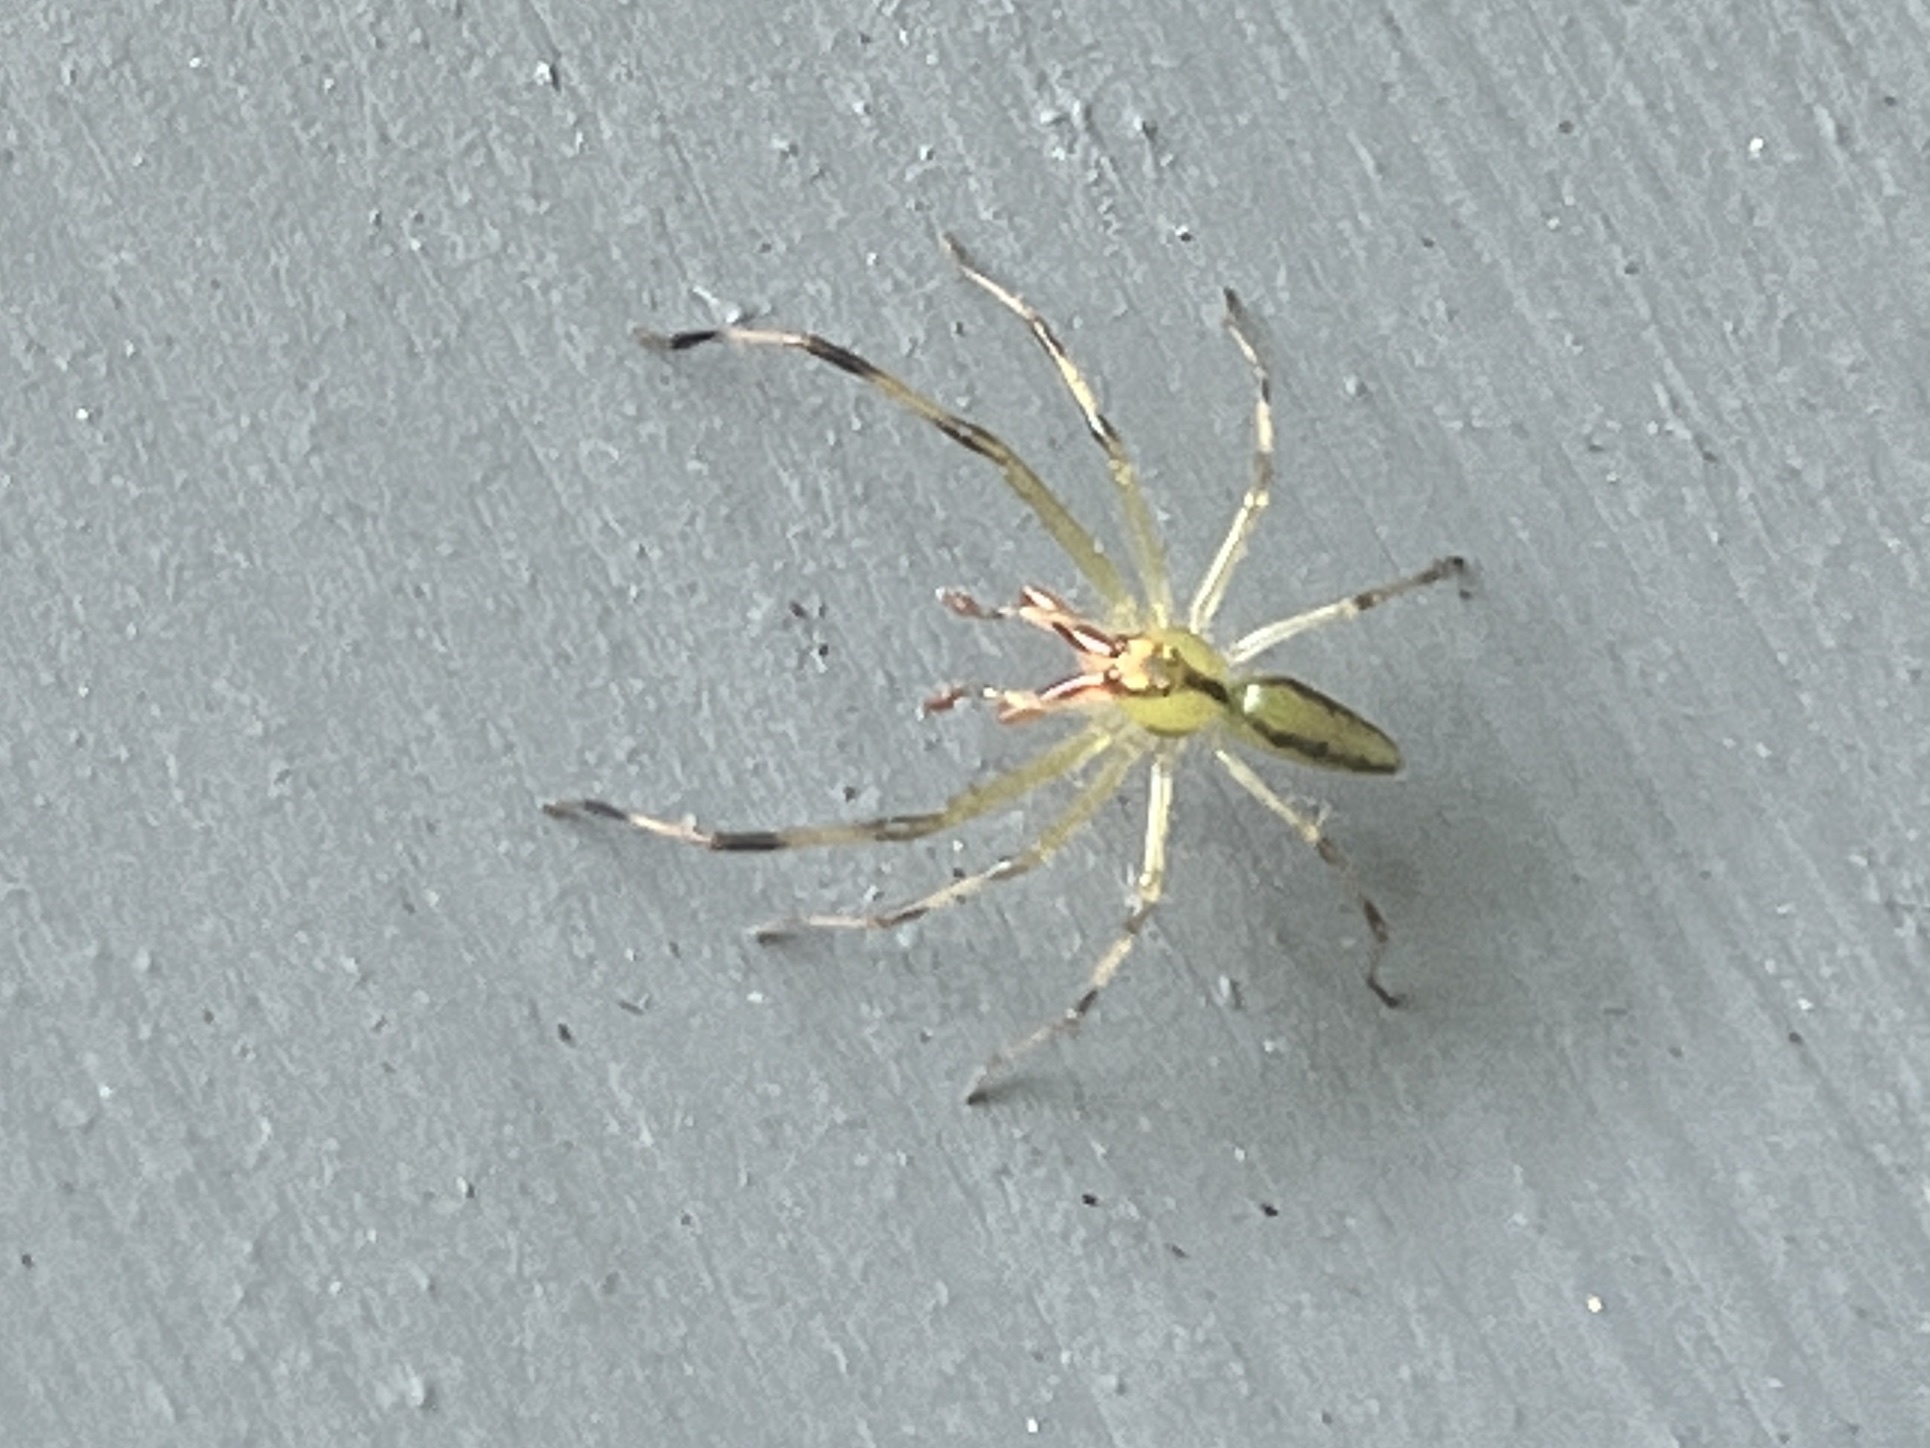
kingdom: Animalia
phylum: Arthropoda
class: Arachnida
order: Araneae
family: Salticidae
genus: Lyssomanes
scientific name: Lyssomanes viridis
